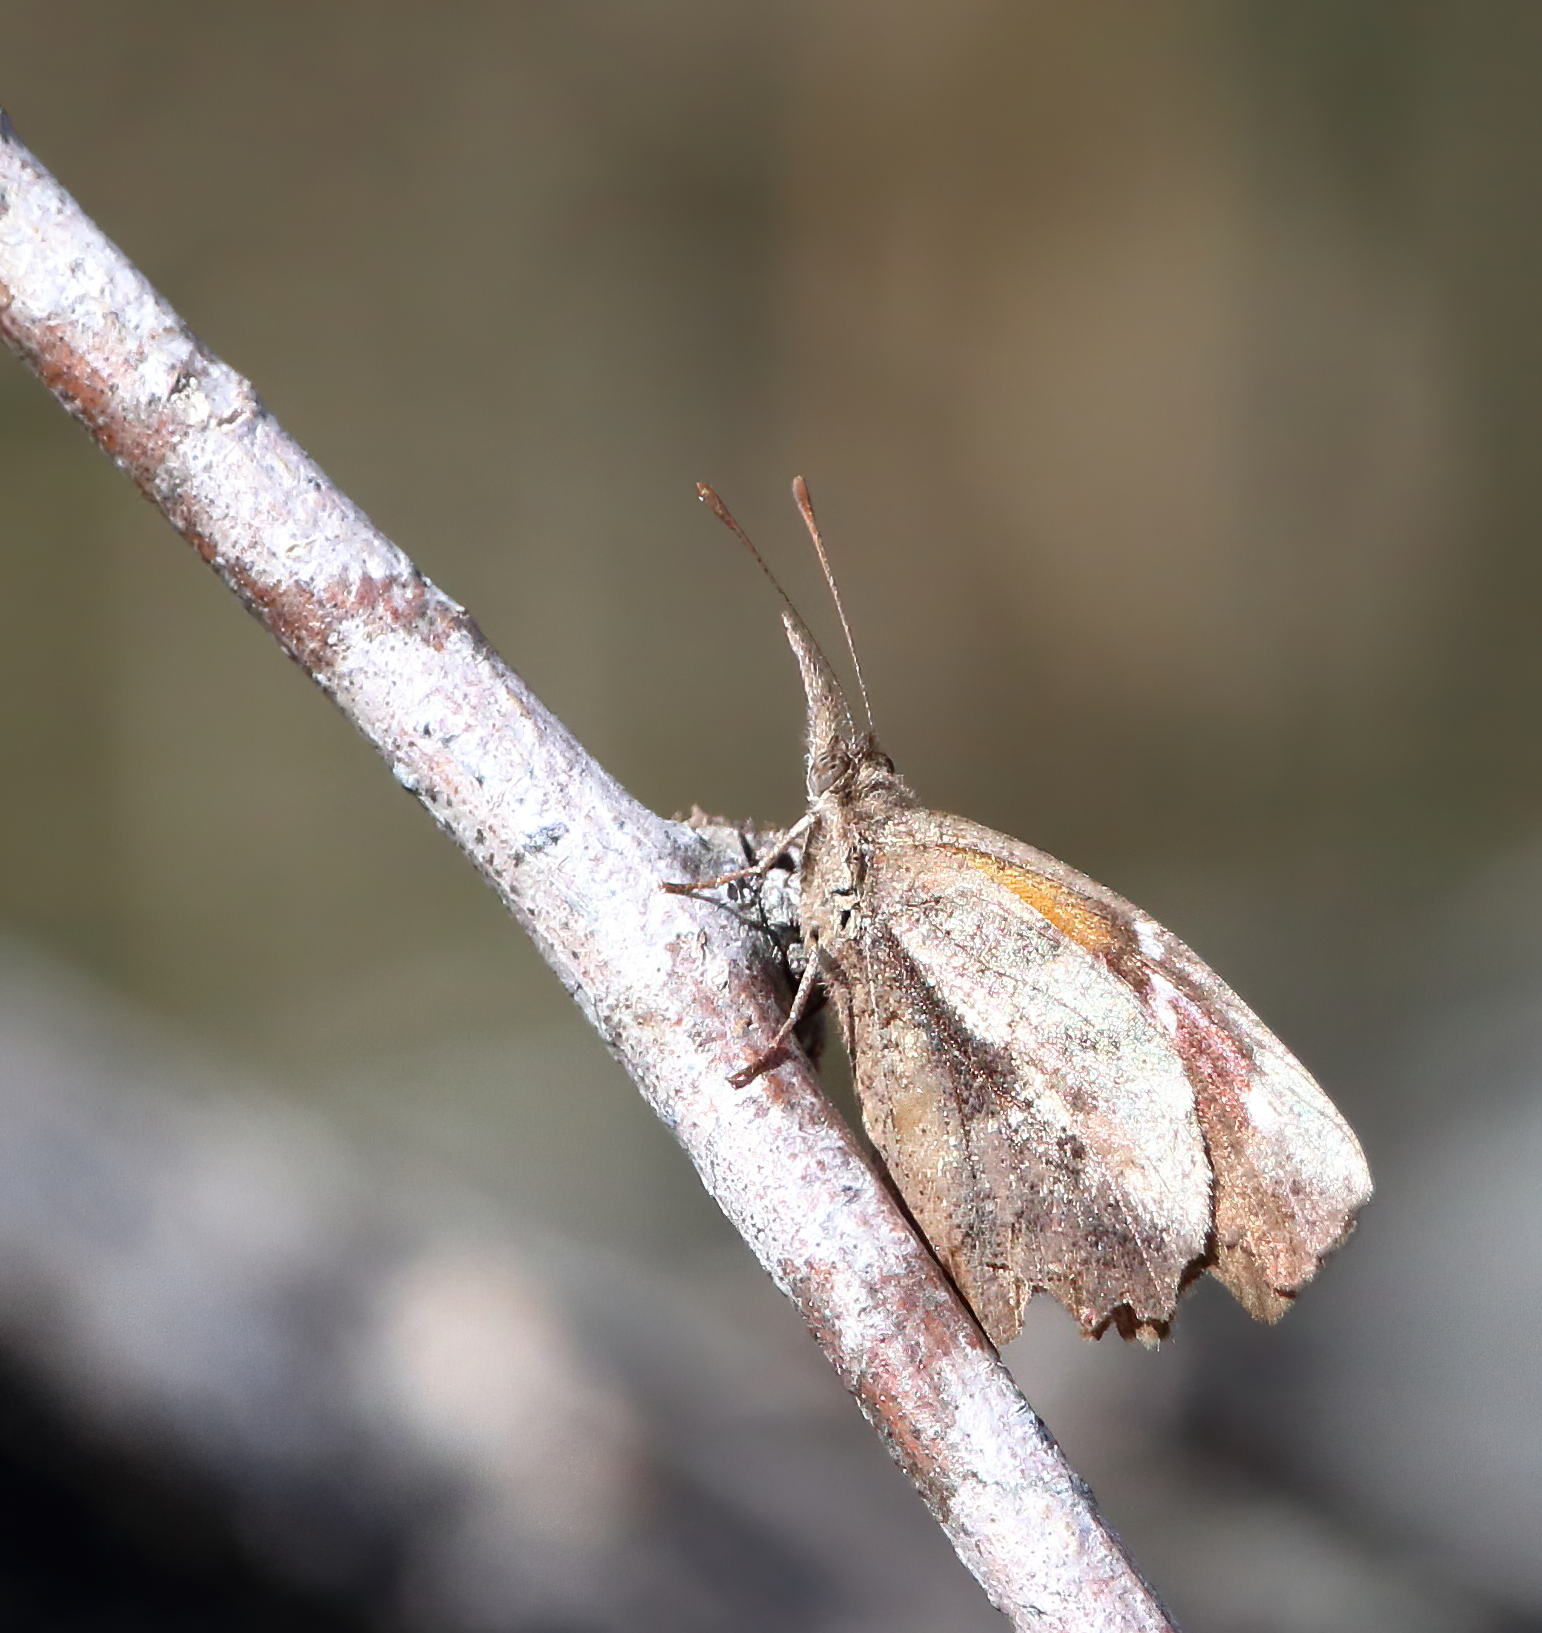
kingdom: Animalia
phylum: Arthropoda
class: Insecta
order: Lepidoptera
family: Nymphalidae
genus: Libytheana
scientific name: Libytheana carinenta
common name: American snout
